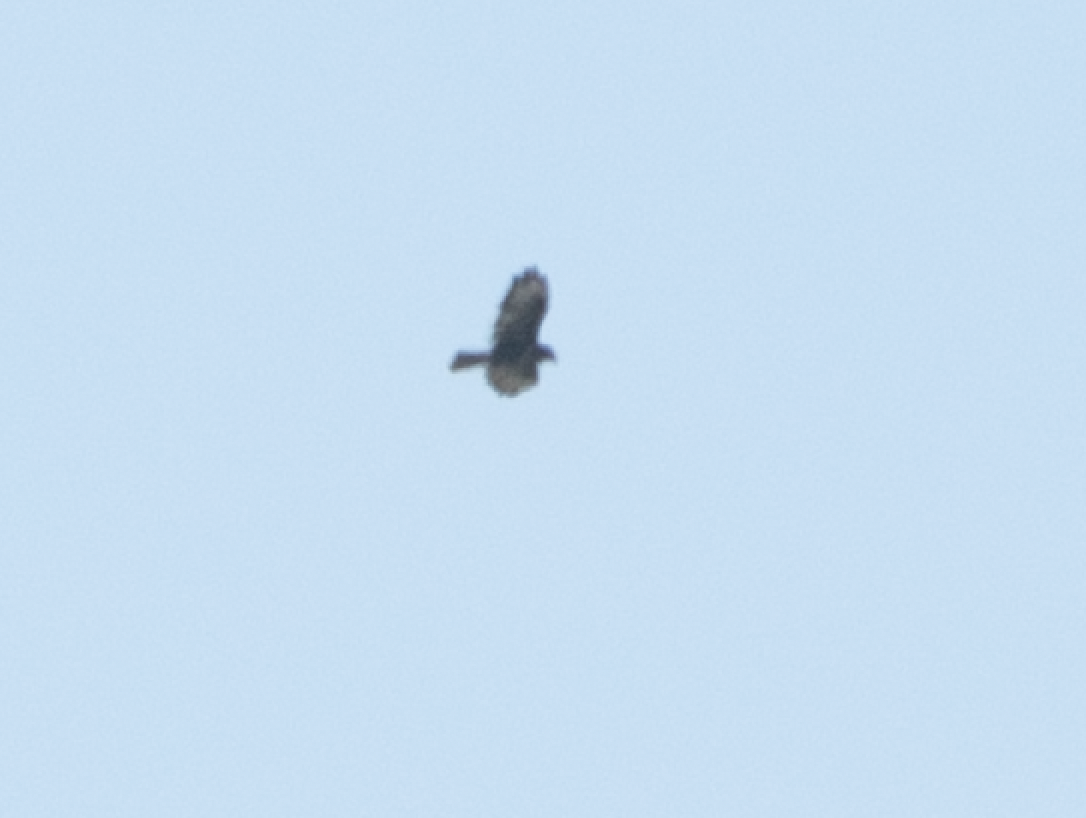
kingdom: Animalia
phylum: Chordata
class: Aves
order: Accipitriformes
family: Accipitridae
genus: Buteo
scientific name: Buteo buteo
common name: Common buzzard
